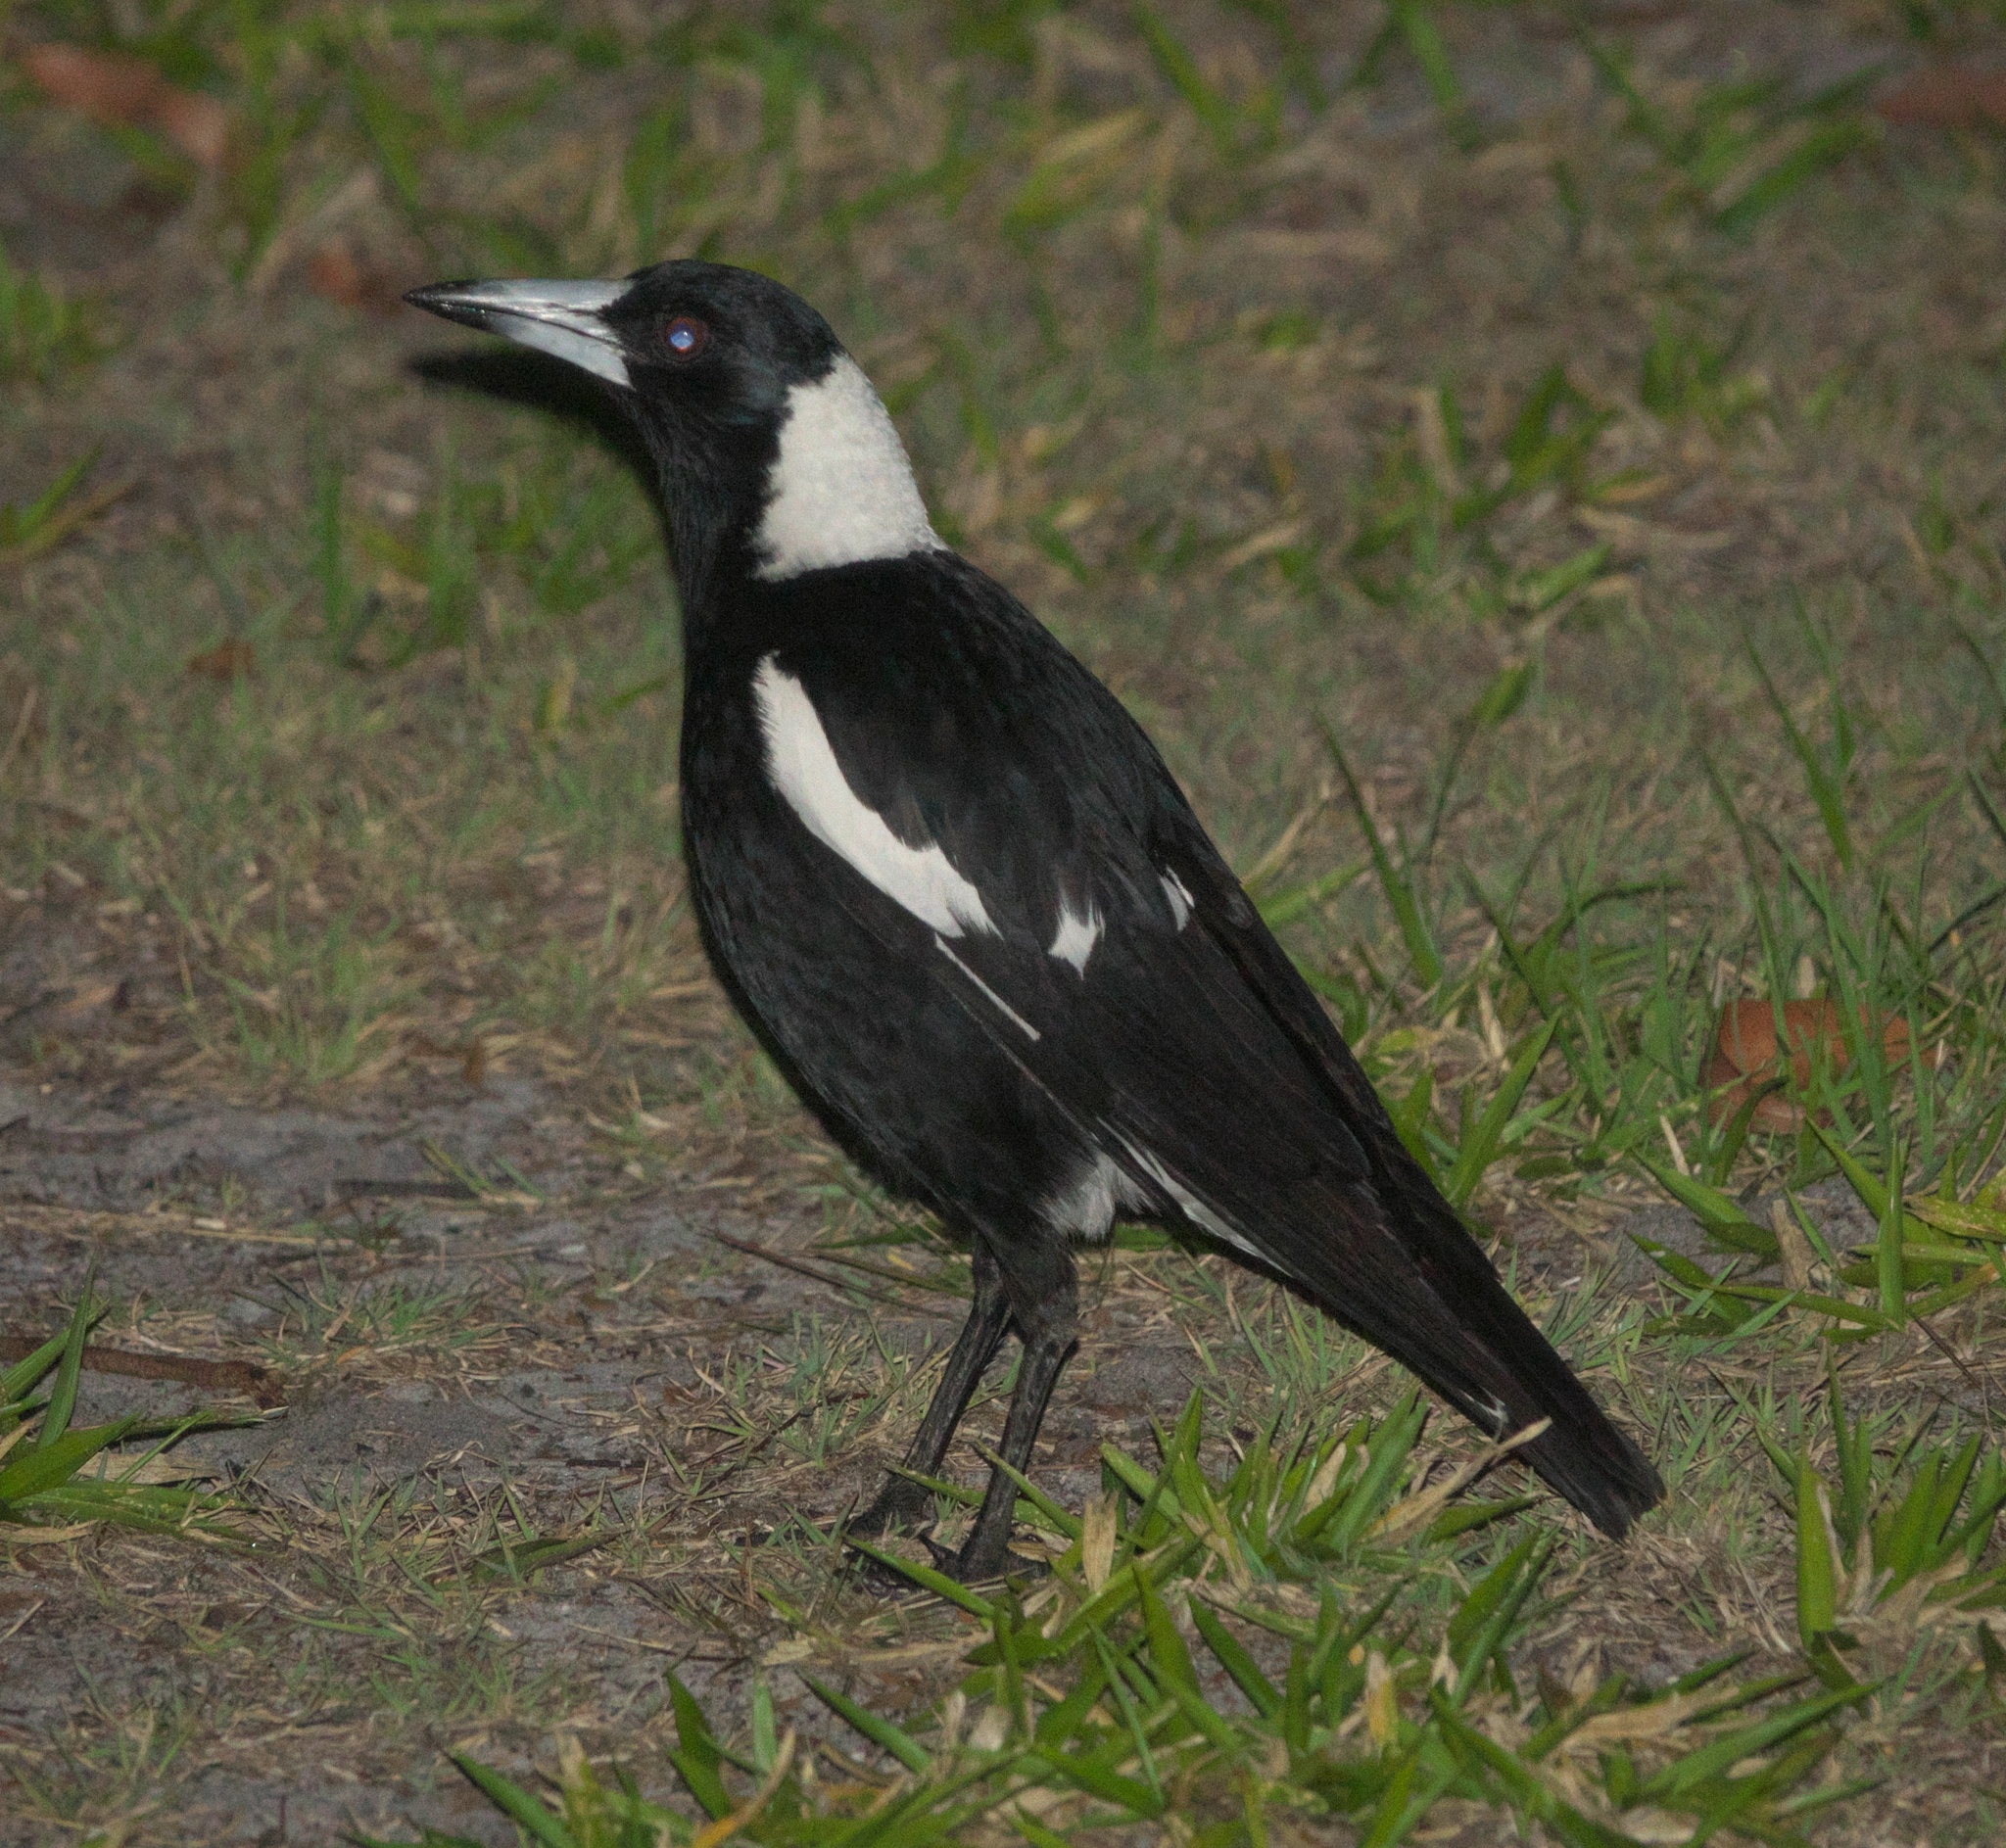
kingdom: Animalia
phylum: Chordata
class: Aves
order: Passeriformes
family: Cracticidae
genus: Gymnorhina
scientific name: Gymnorhina tibicen
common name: Australian magpie
